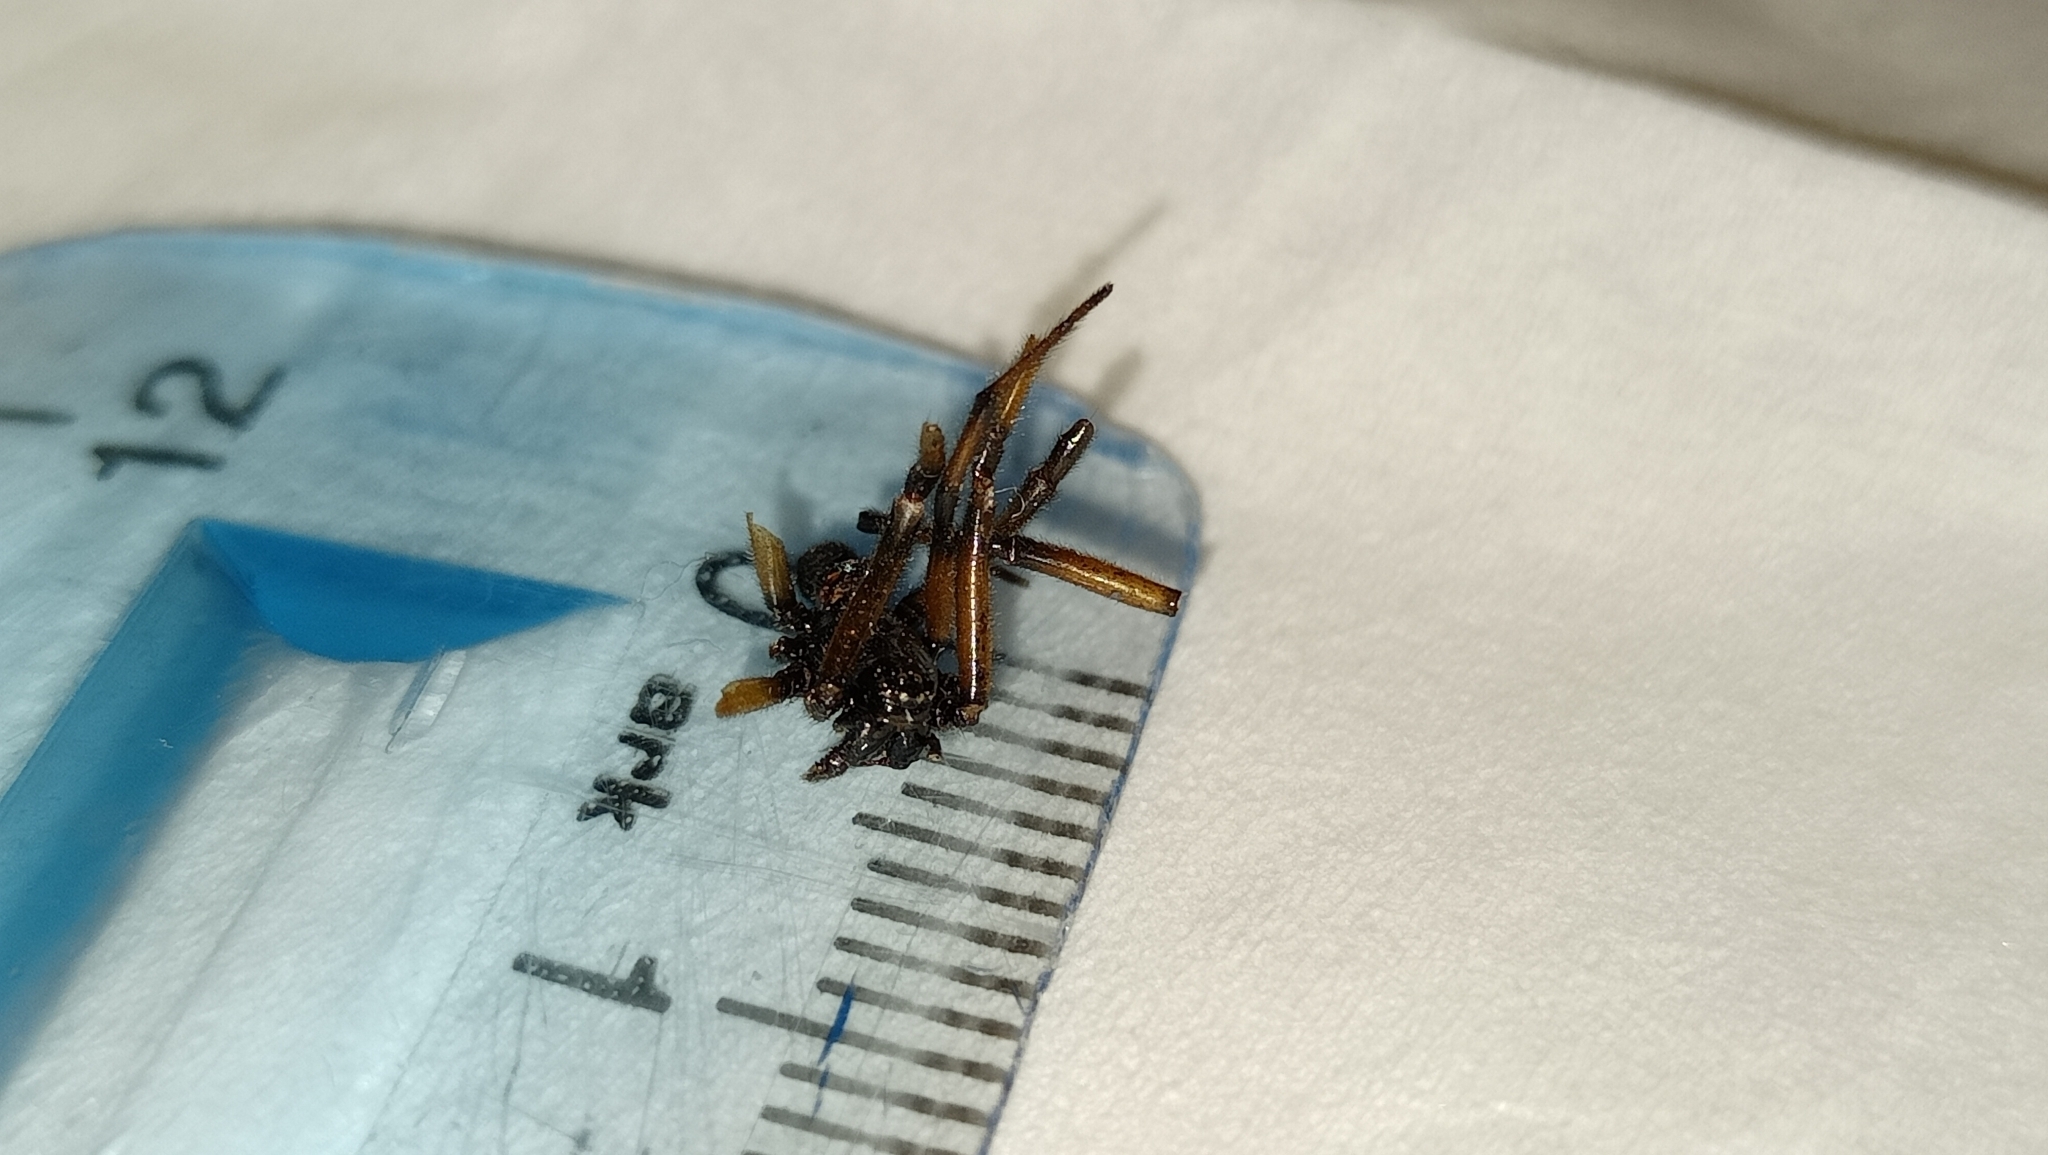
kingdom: Animalia
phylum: Arthropoda
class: Arachnida
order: Araneae
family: Theridiidae
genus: Steatoda
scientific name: Steatoda paykulliana
